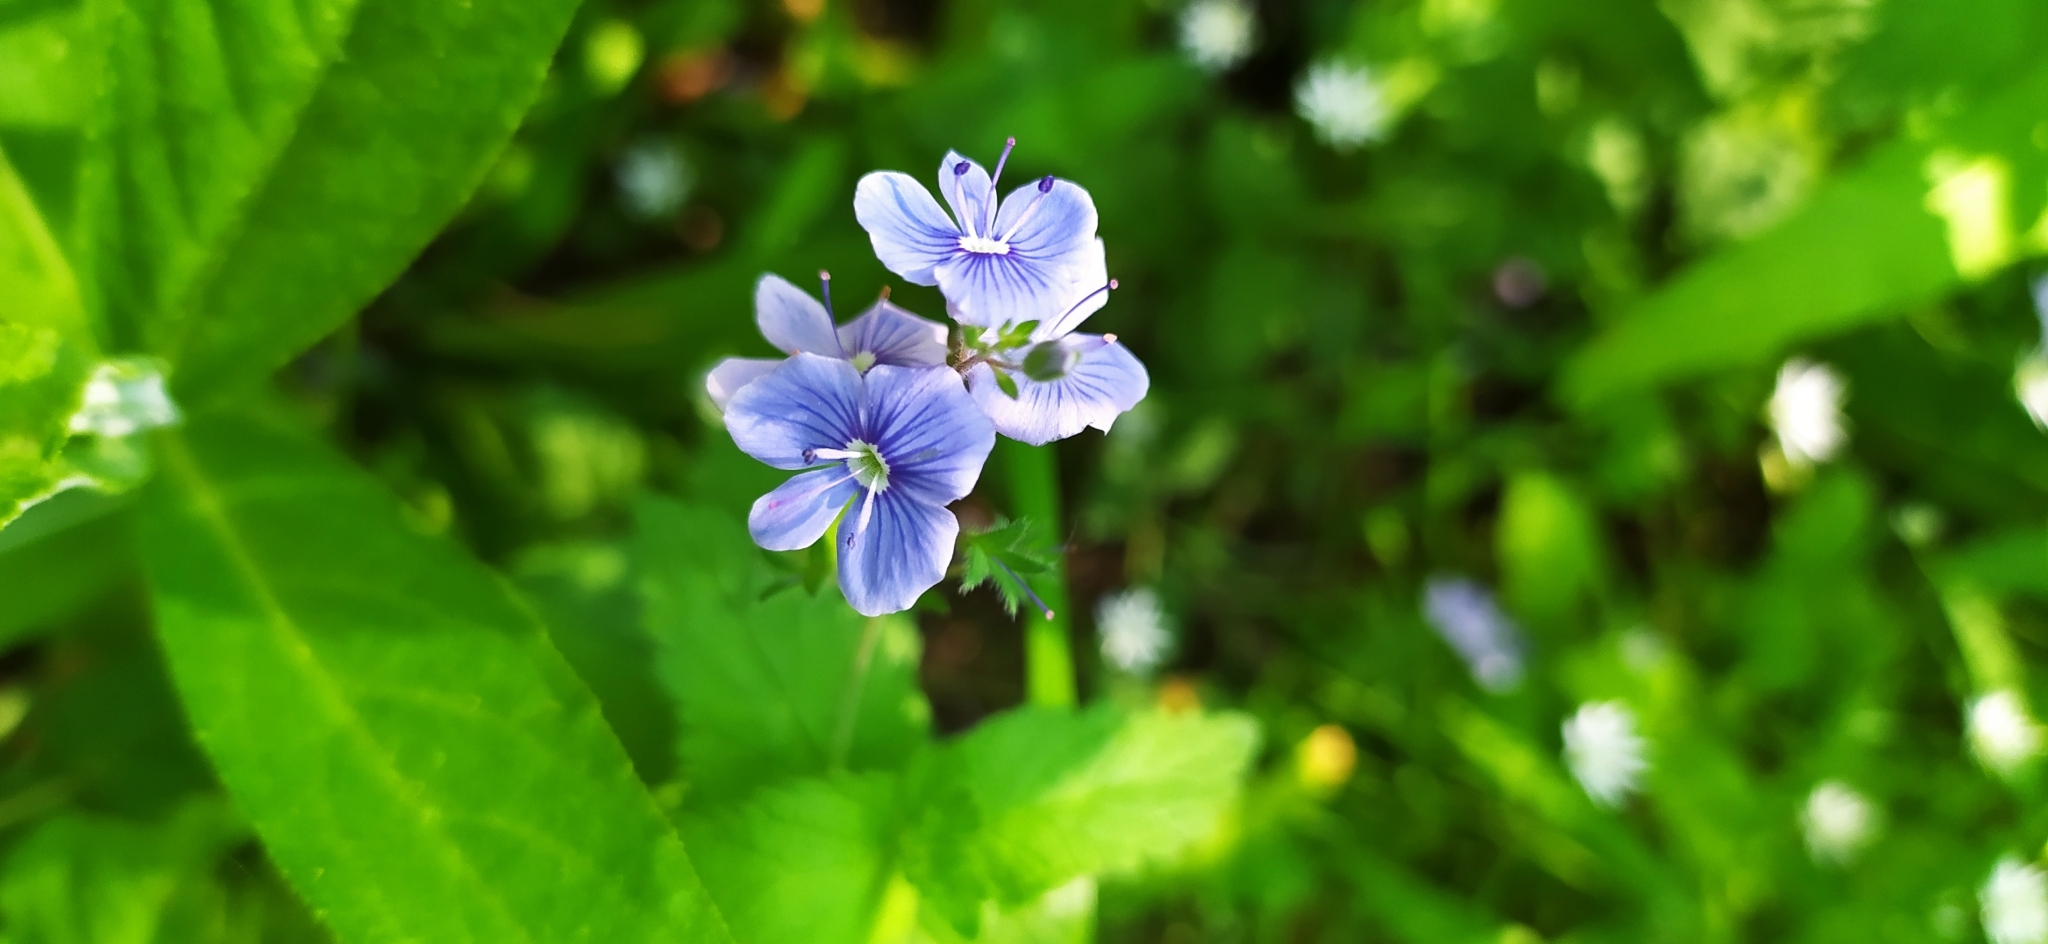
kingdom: Plantae
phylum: Tracheophyta
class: Magnoliopsida
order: Lamiales
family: Plantaginaceae
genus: Veronica
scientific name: Veronica chamaedrys
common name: Germander speedwell
